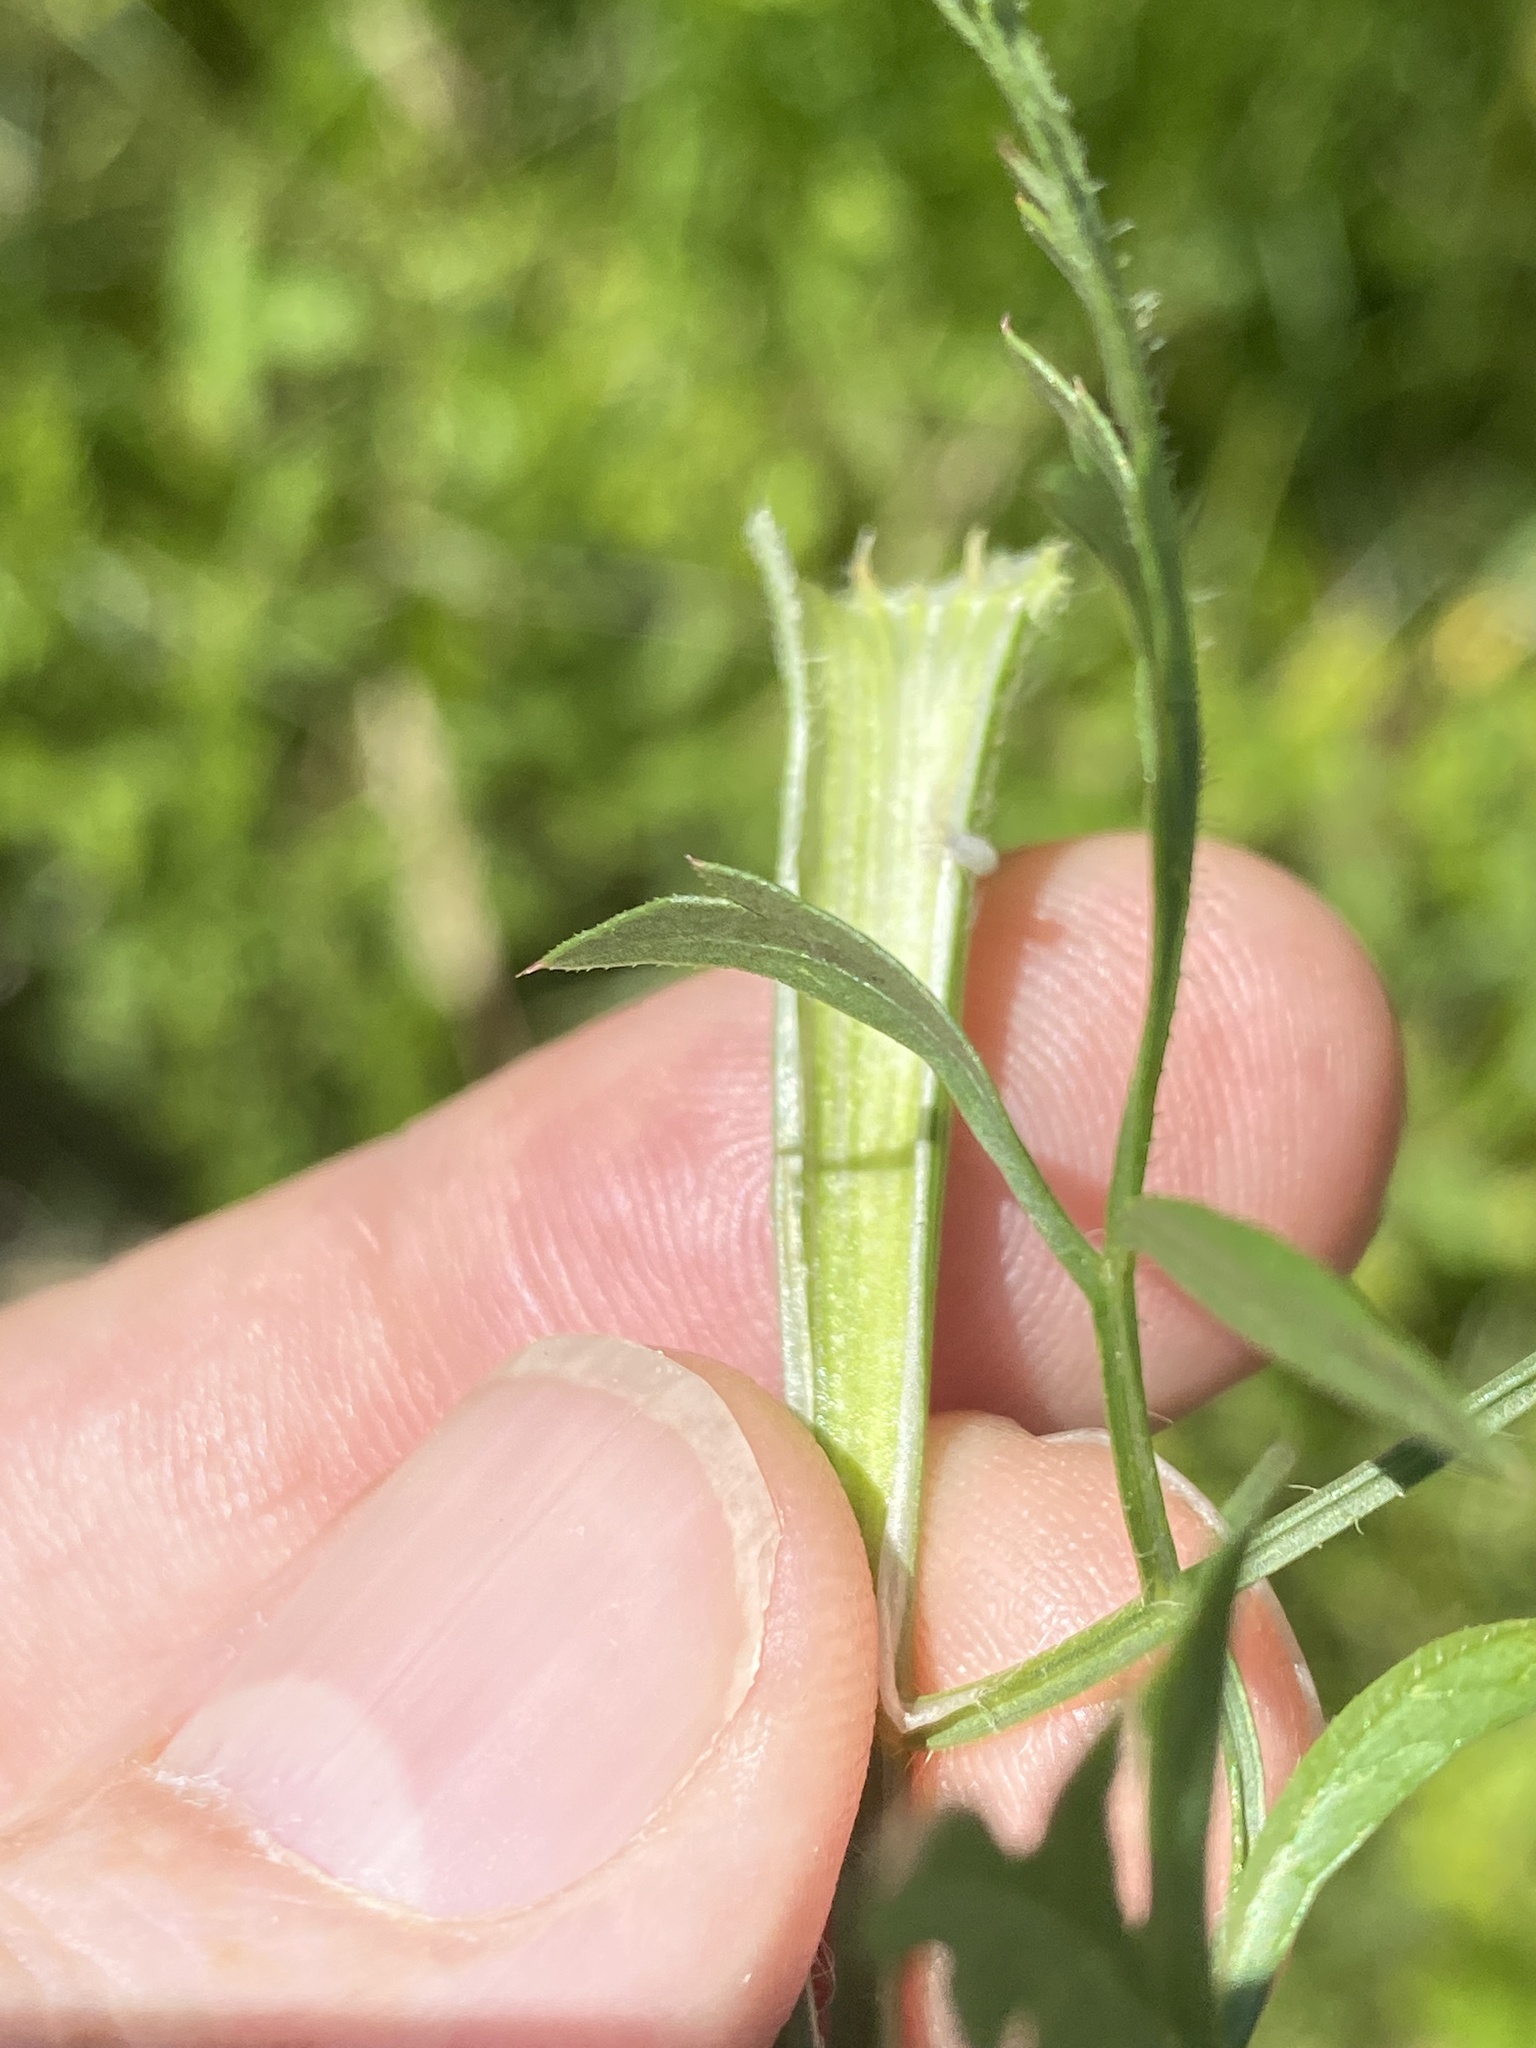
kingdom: Plantae
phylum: Tracheophyta
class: Magnoliopsida
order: Apiales
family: Apiaceae
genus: Daucus
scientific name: Daucus carota
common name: Wild carrot
